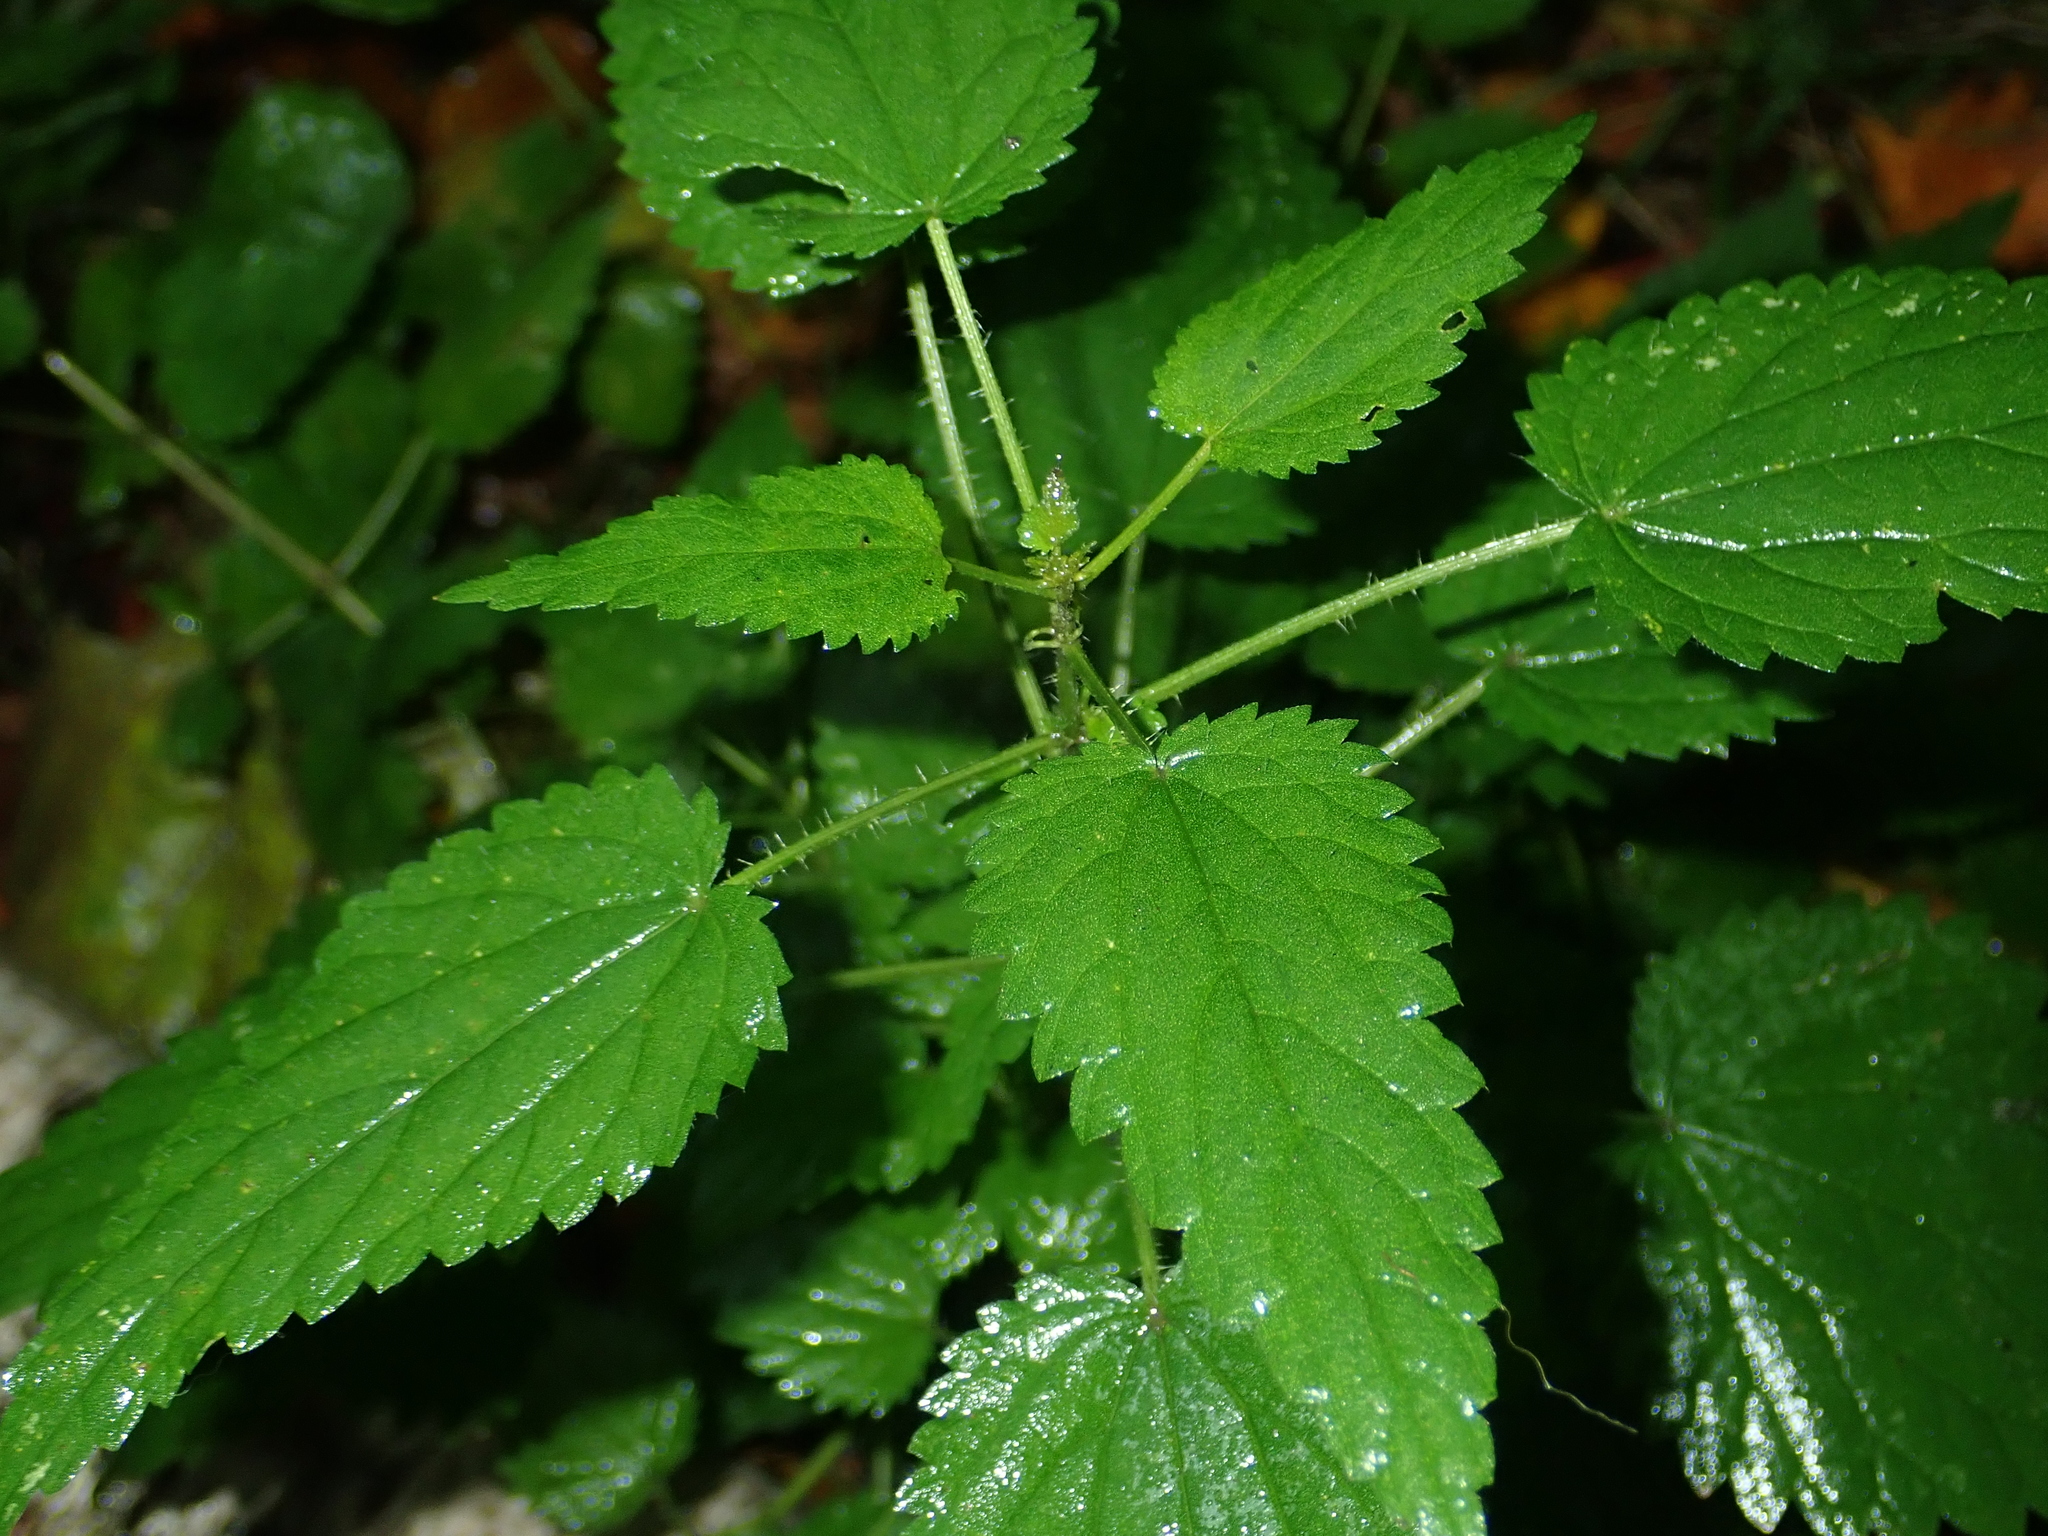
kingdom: Plantae
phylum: Tracheophyta
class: Magnoliopsida
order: Rosales
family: Urticaceae
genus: Urtica
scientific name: Urtica dioica
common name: Common nettle
